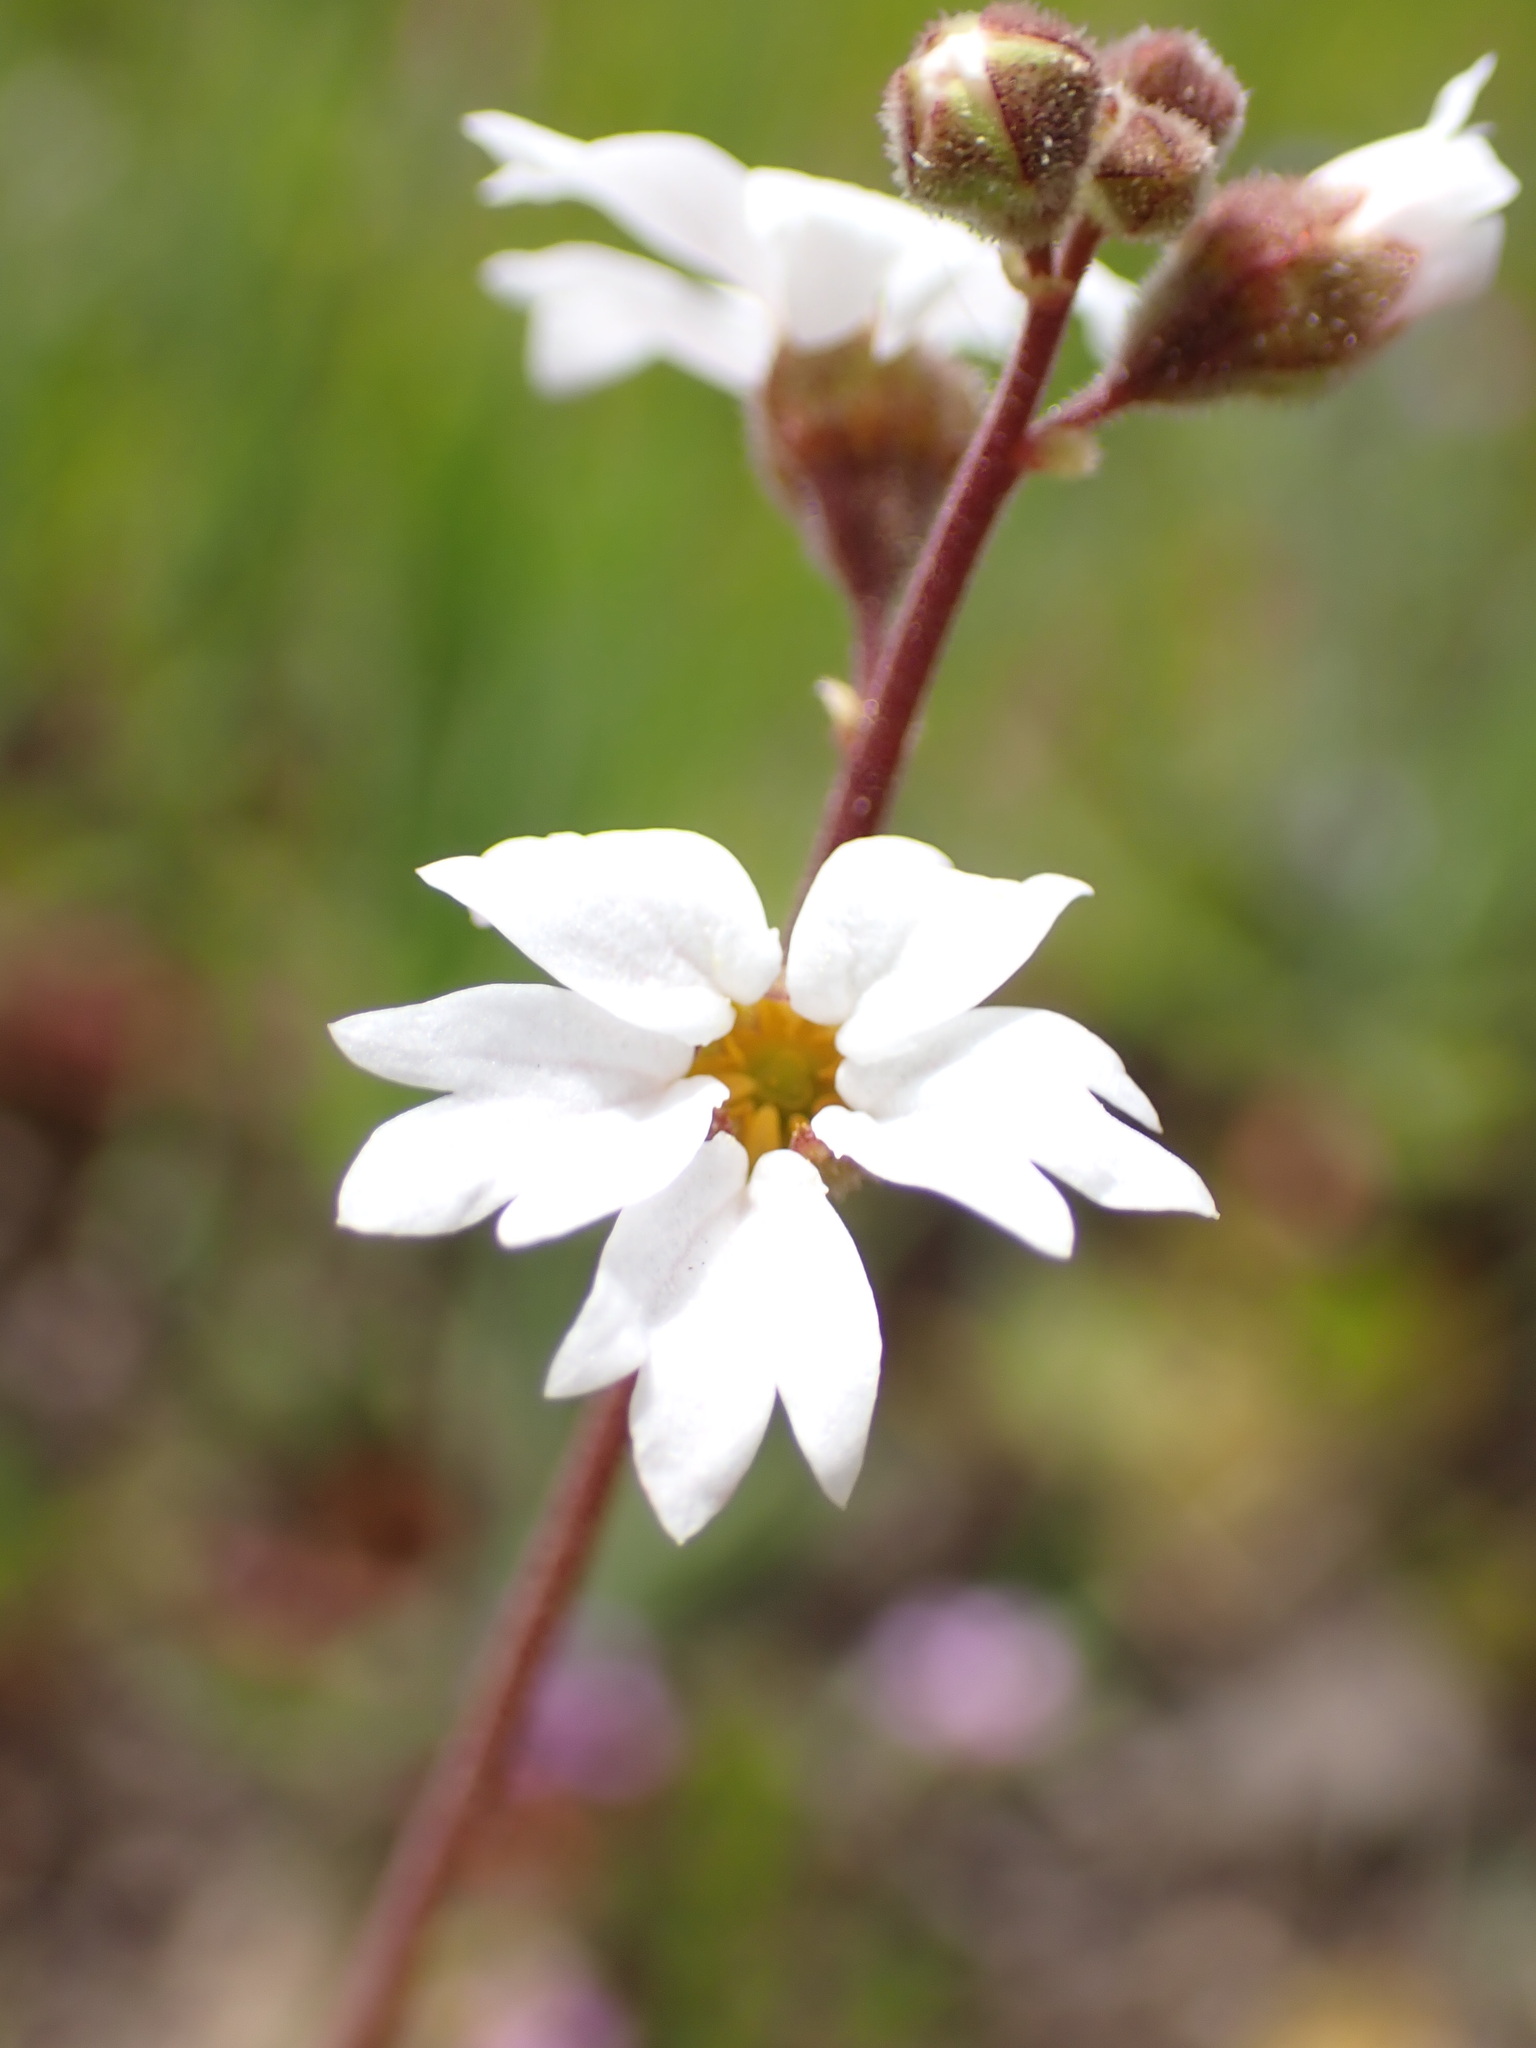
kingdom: Plantae
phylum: Tracheophyta
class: Magnoliopsida
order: Saxifragales
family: Saxifragaceae
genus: Lithophragma
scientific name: Lithophragma affine
